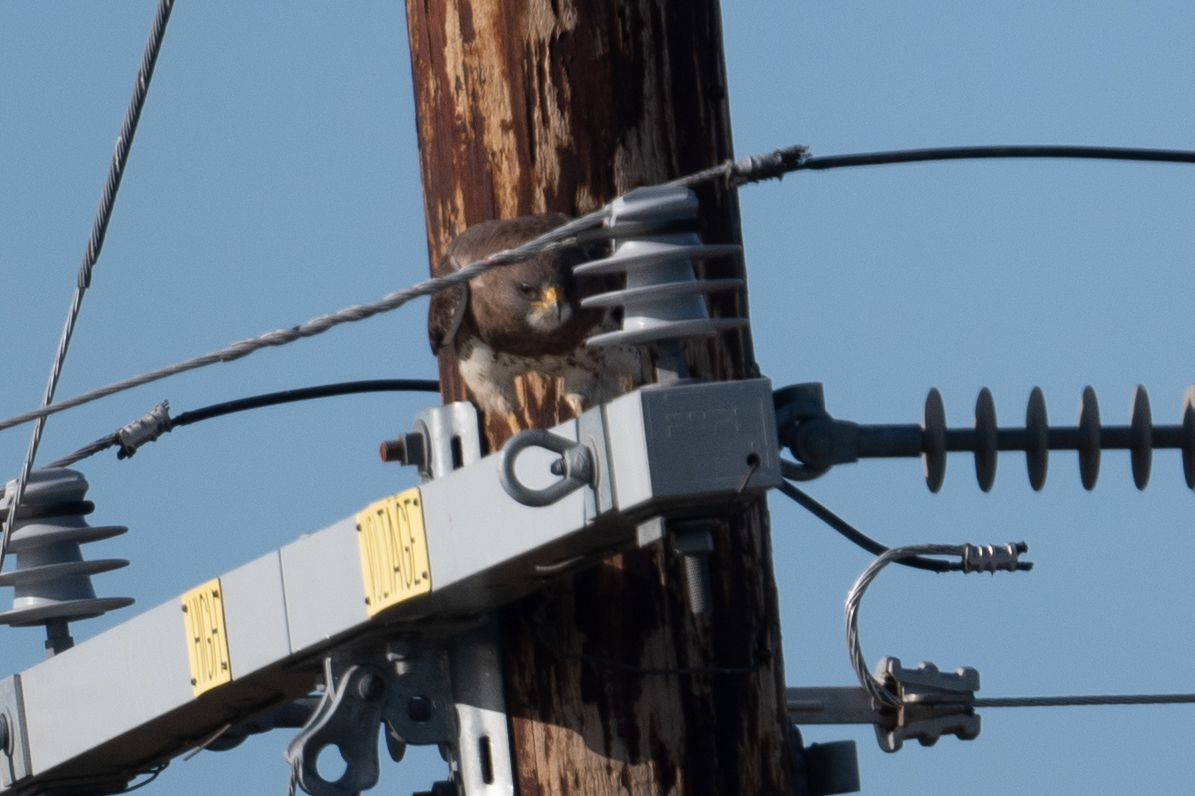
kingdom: Animalia
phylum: Chordata
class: Aves
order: Accipitriformes
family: Accipitridae
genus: Buteo
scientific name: Buteo swainsoni
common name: Swainson's hawk
